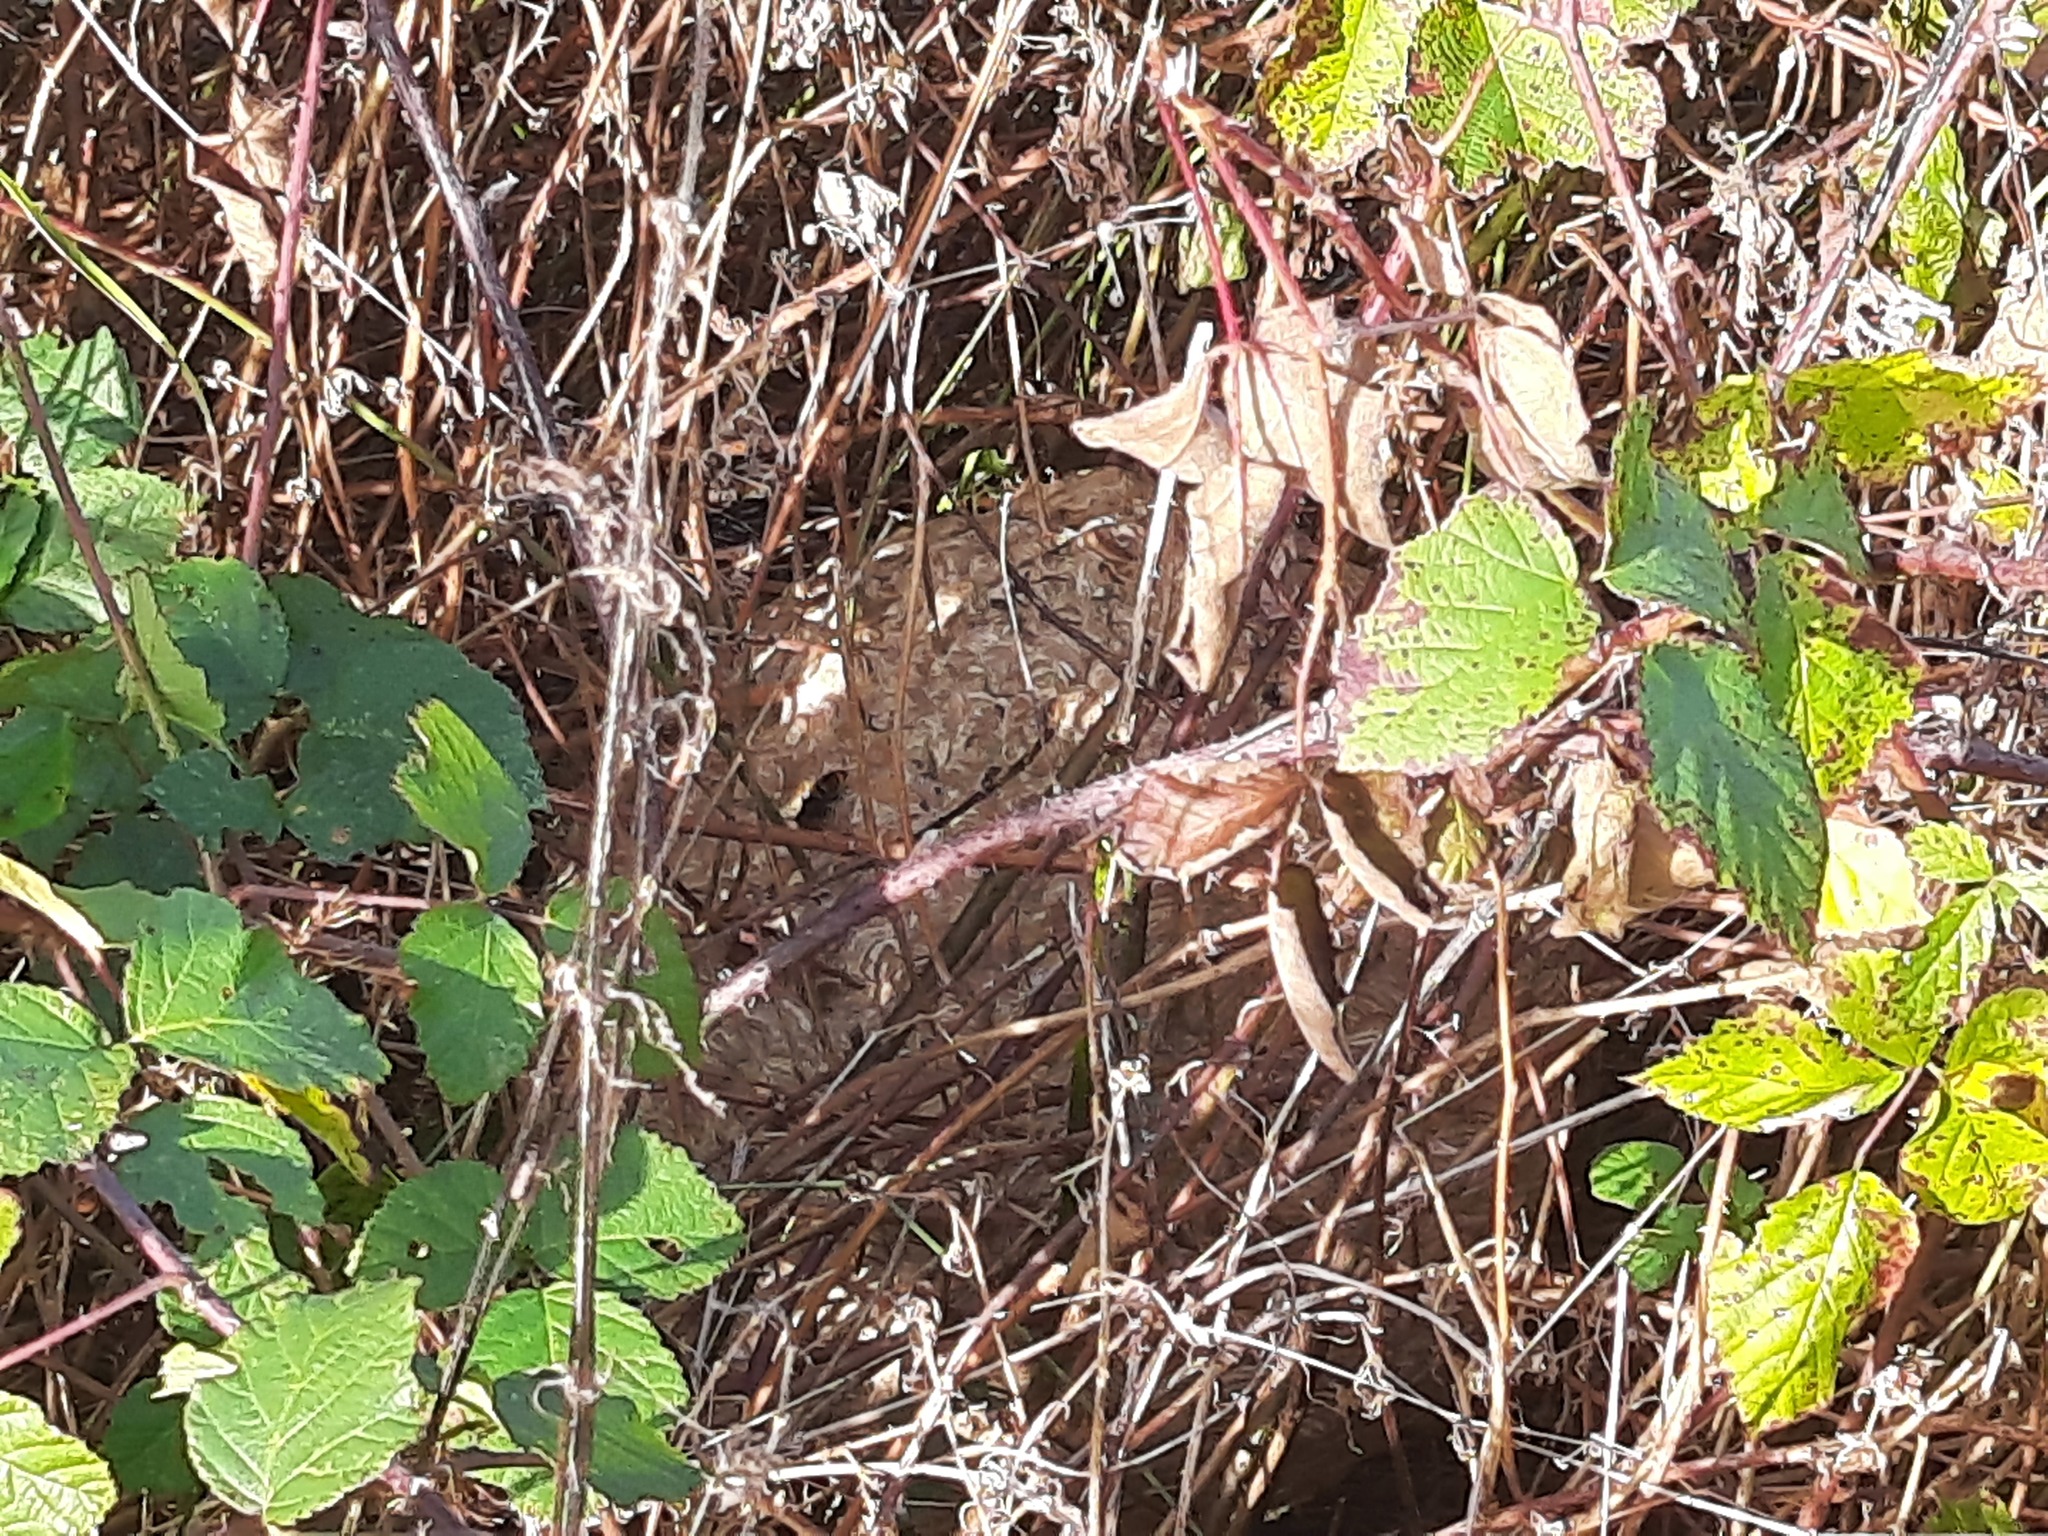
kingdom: Animalia
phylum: Arthropoda
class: Insecta
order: Hymenoptera
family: Vespidae
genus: Vespa
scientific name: Vespa velutina
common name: Asian hornet
